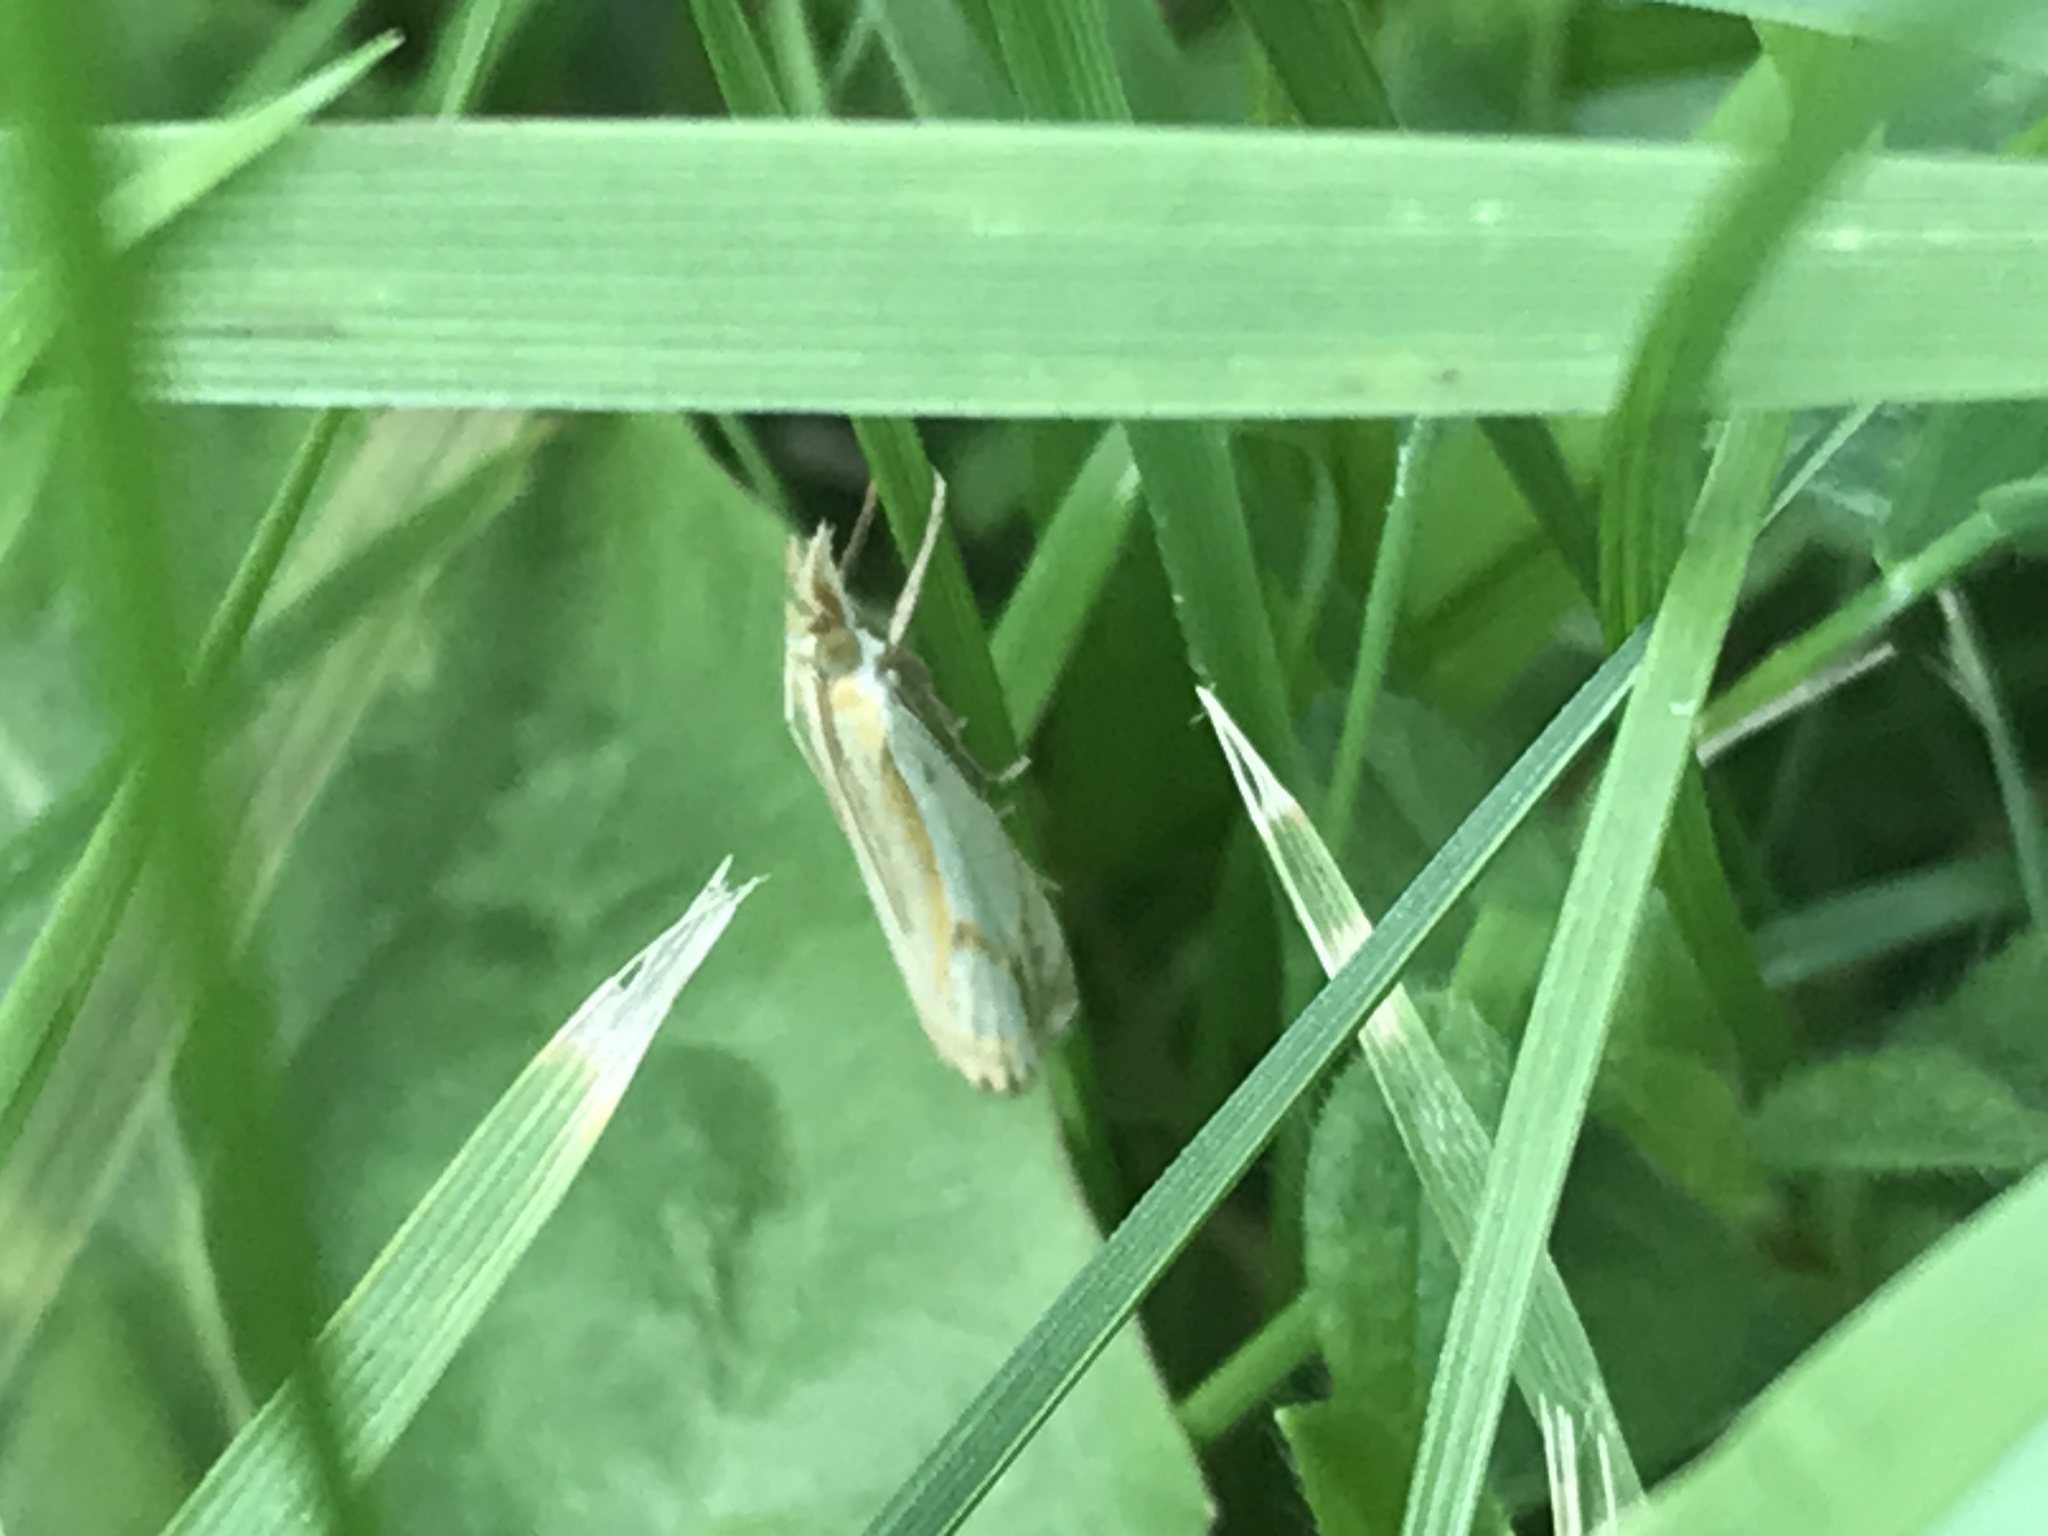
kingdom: Animalia
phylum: Arthropoda
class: Insecta
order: Lepidoptera
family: Crambidae
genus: Crambus
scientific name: Crambus agitatellus
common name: Double-banded grass-veneer
